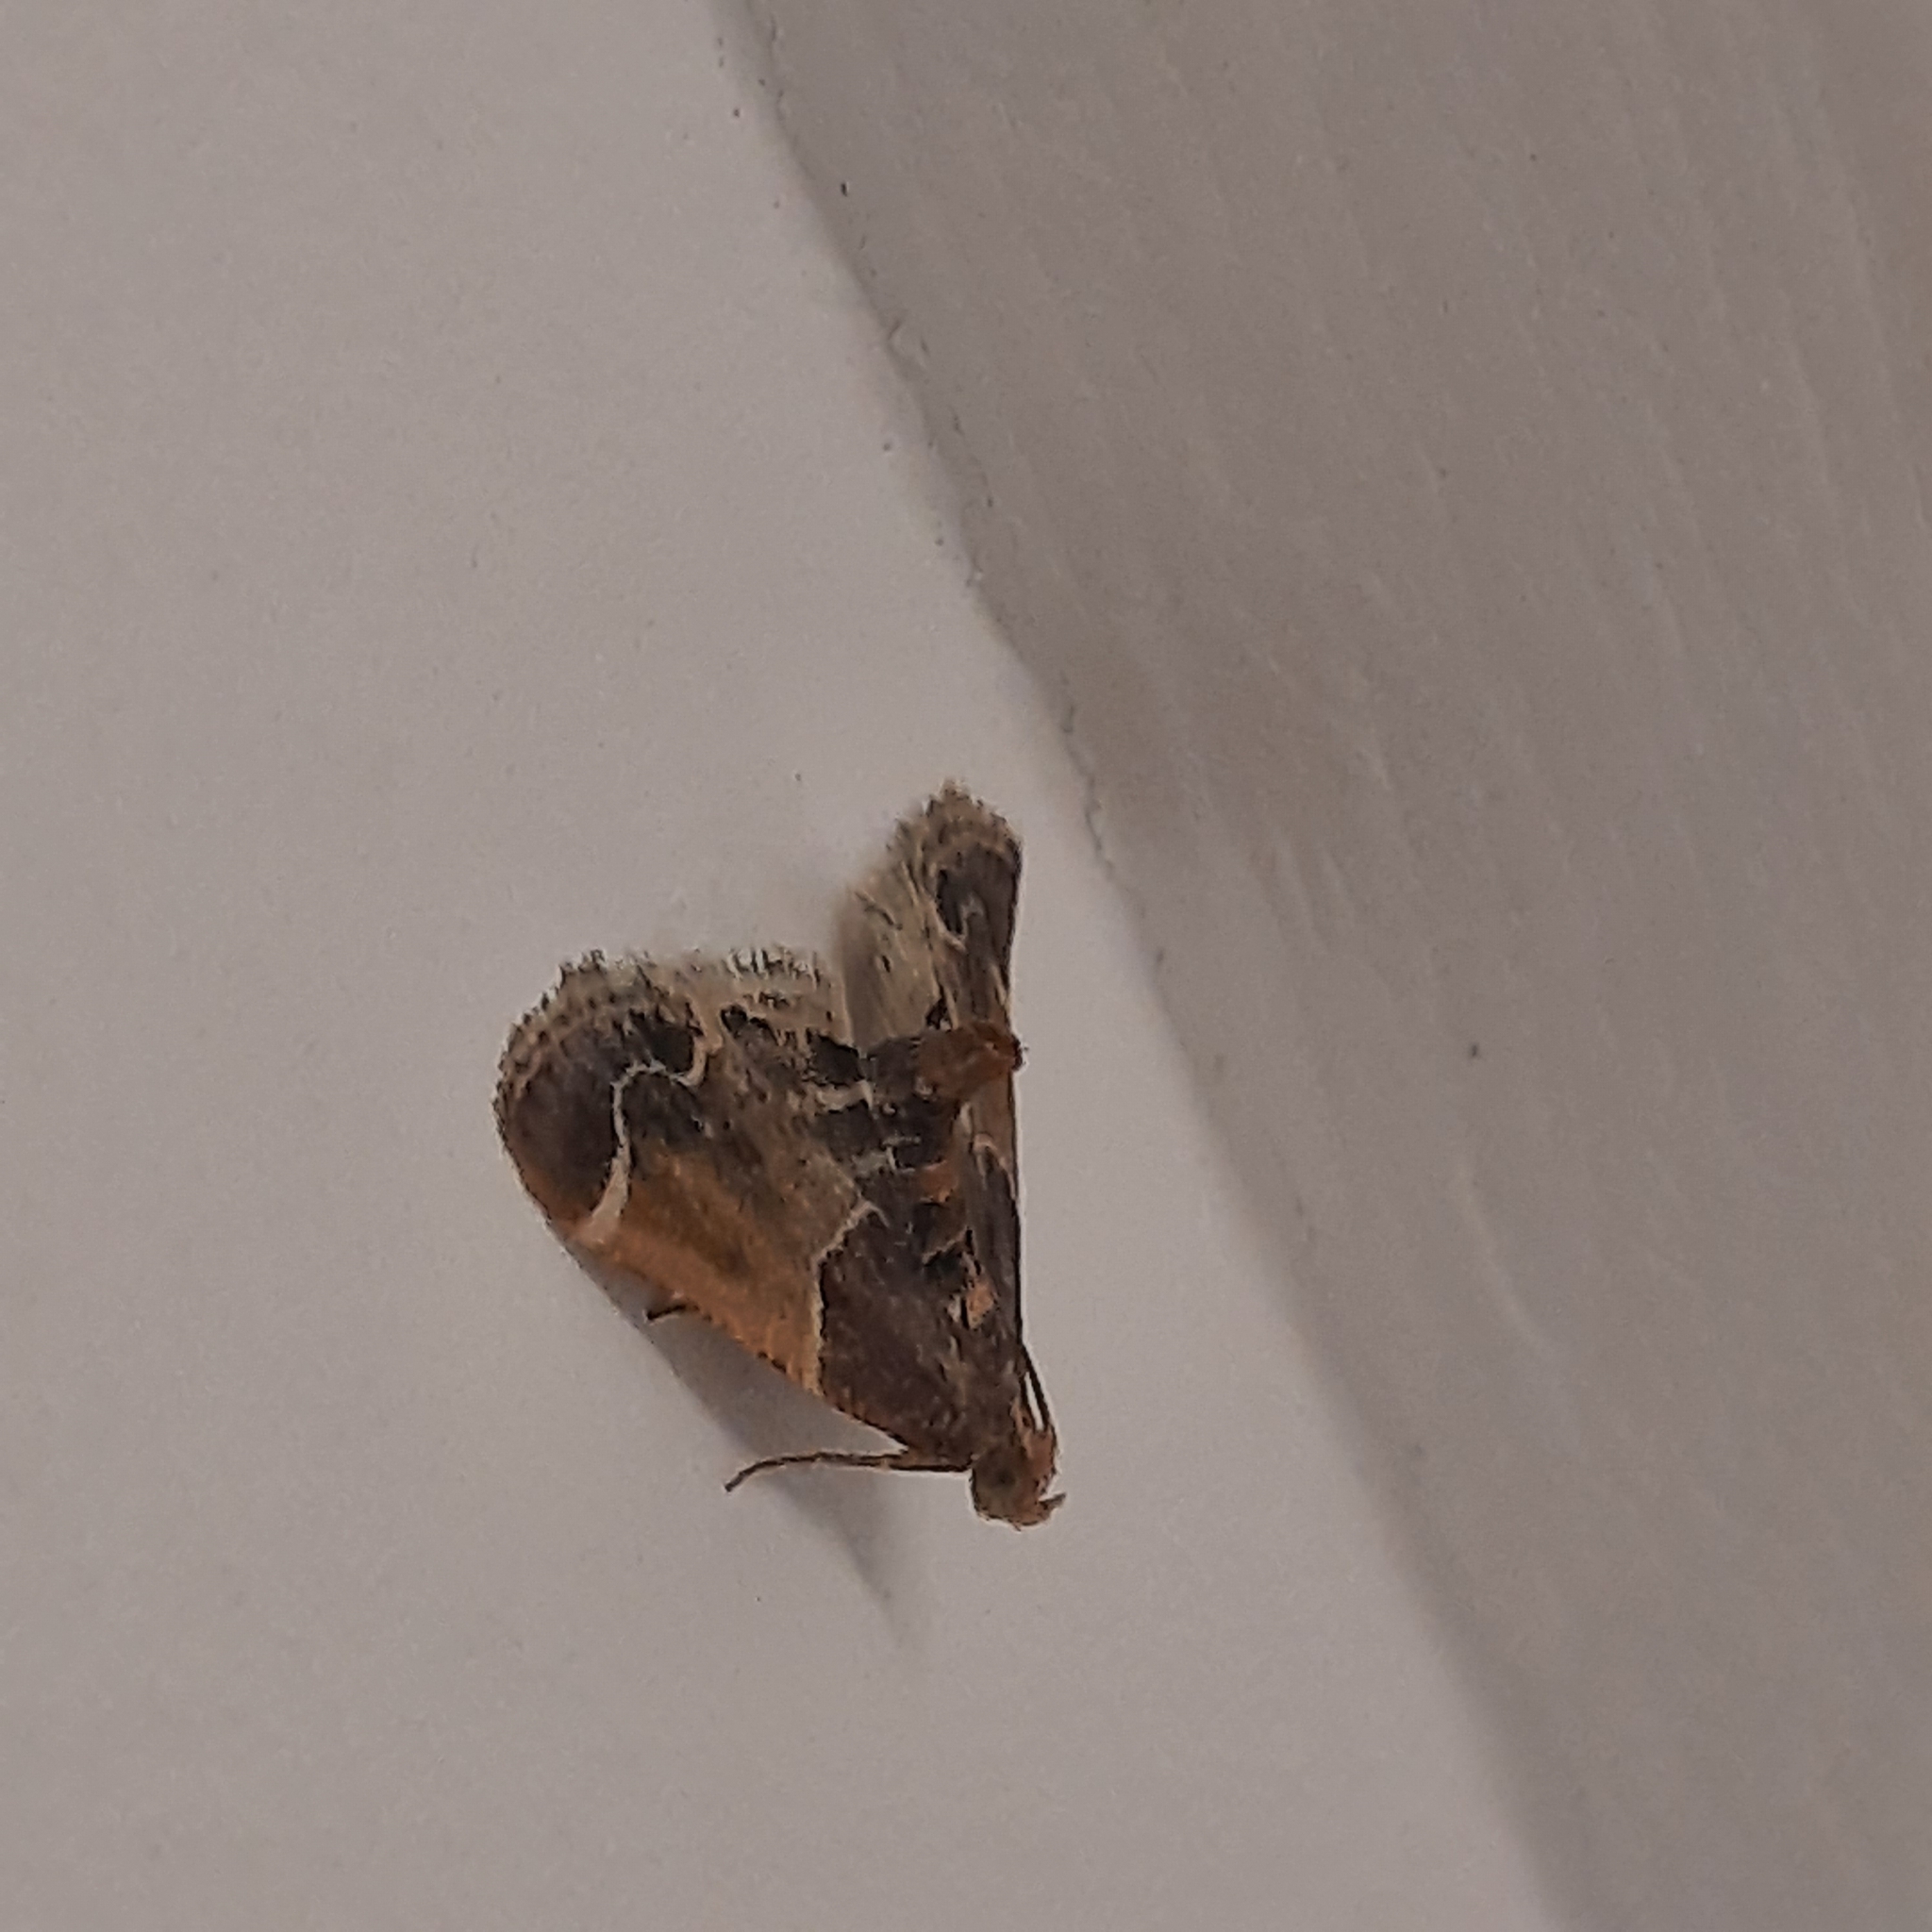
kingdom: Animalia
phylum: Arthropoda
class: Insecta
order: Lepidoptera
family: Pyralidae
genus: Pyralis
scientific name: Pyralis farinalis
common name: Meal moth
